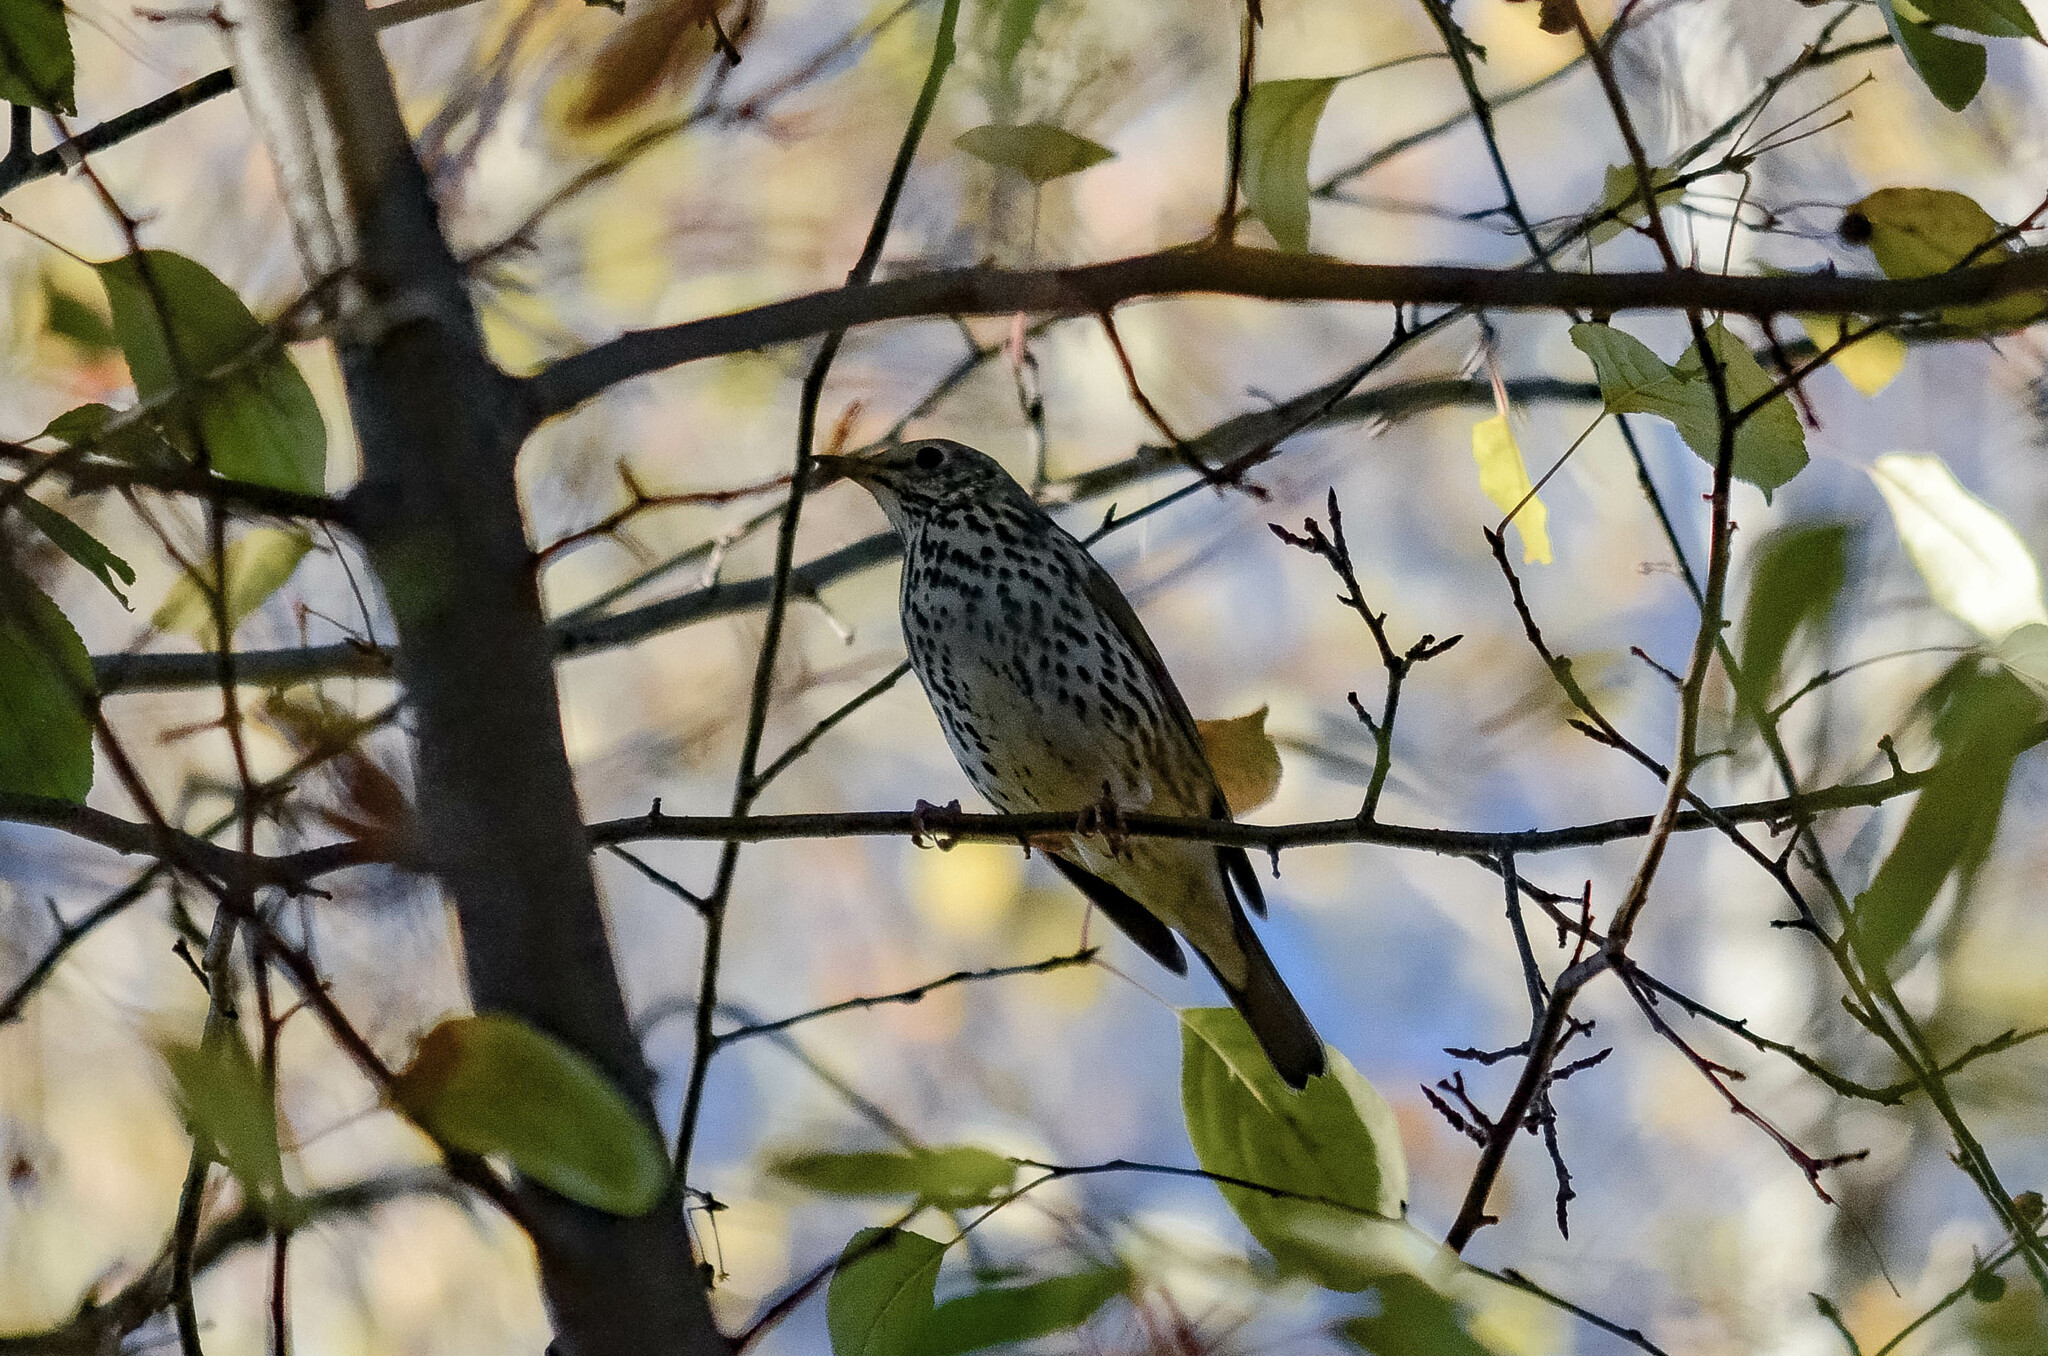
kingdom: Animalia
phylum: Chordata
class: Aves
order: Passeriformes
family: Turdidae
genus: Turdus
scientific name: Turdus philomelos
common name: Song thrush
